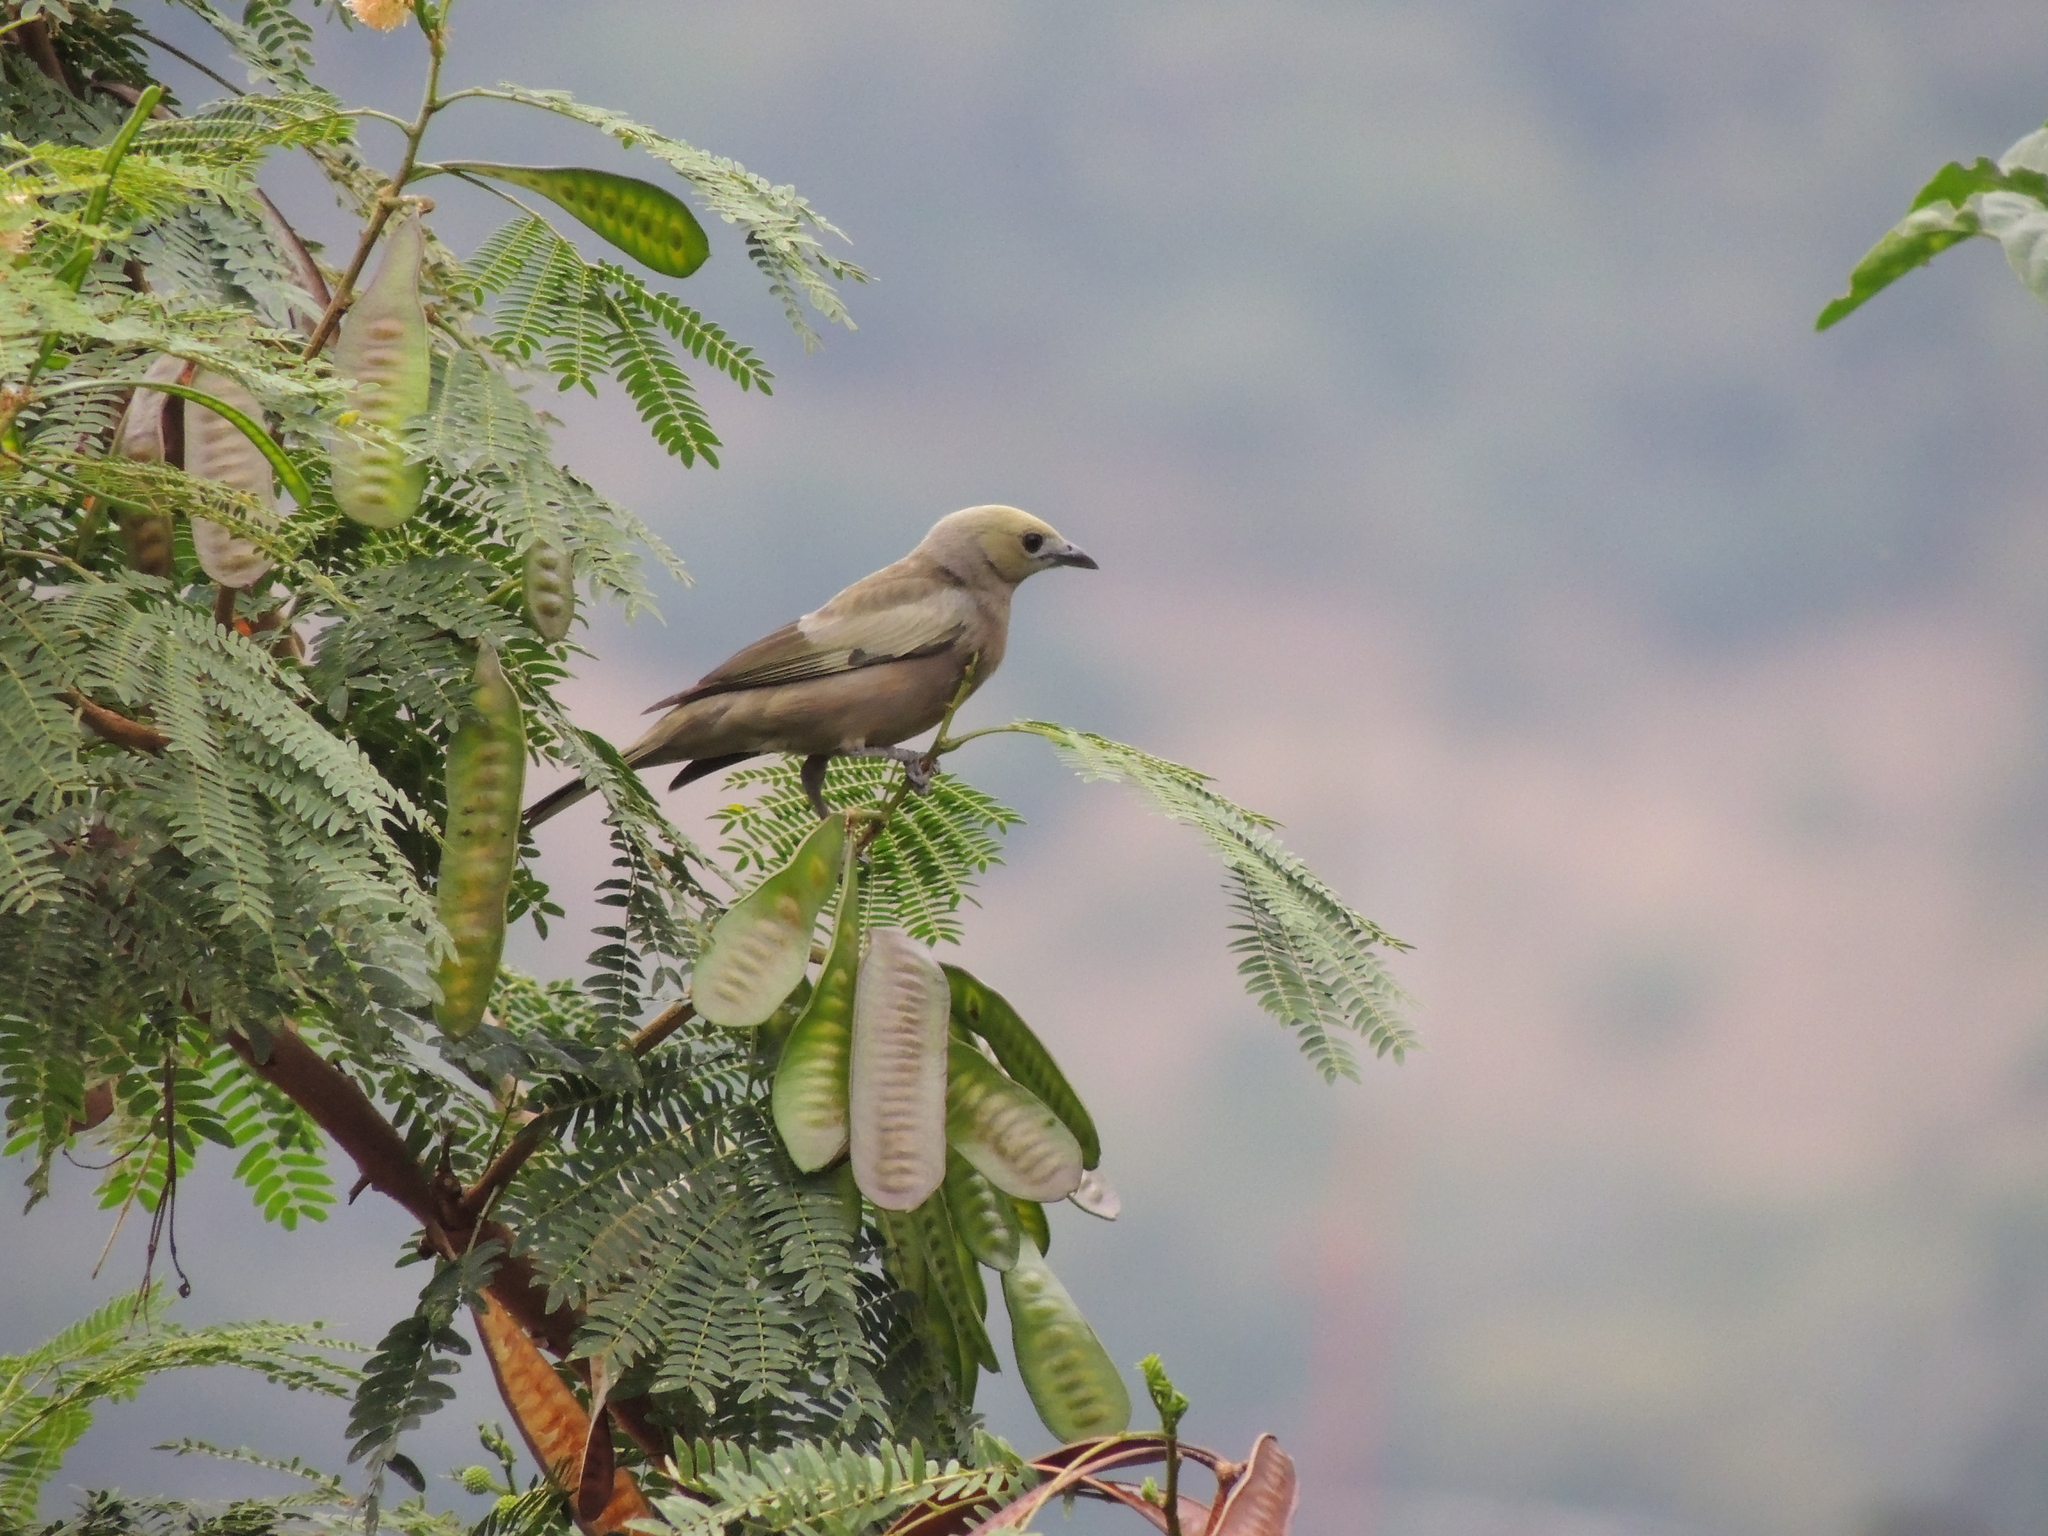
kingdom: Animalia
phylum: Chordata
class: Aves
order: Passeriformes
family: Thraupidae
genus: Thraupis
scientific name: Thraupis palmarum
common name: Palm tanager
